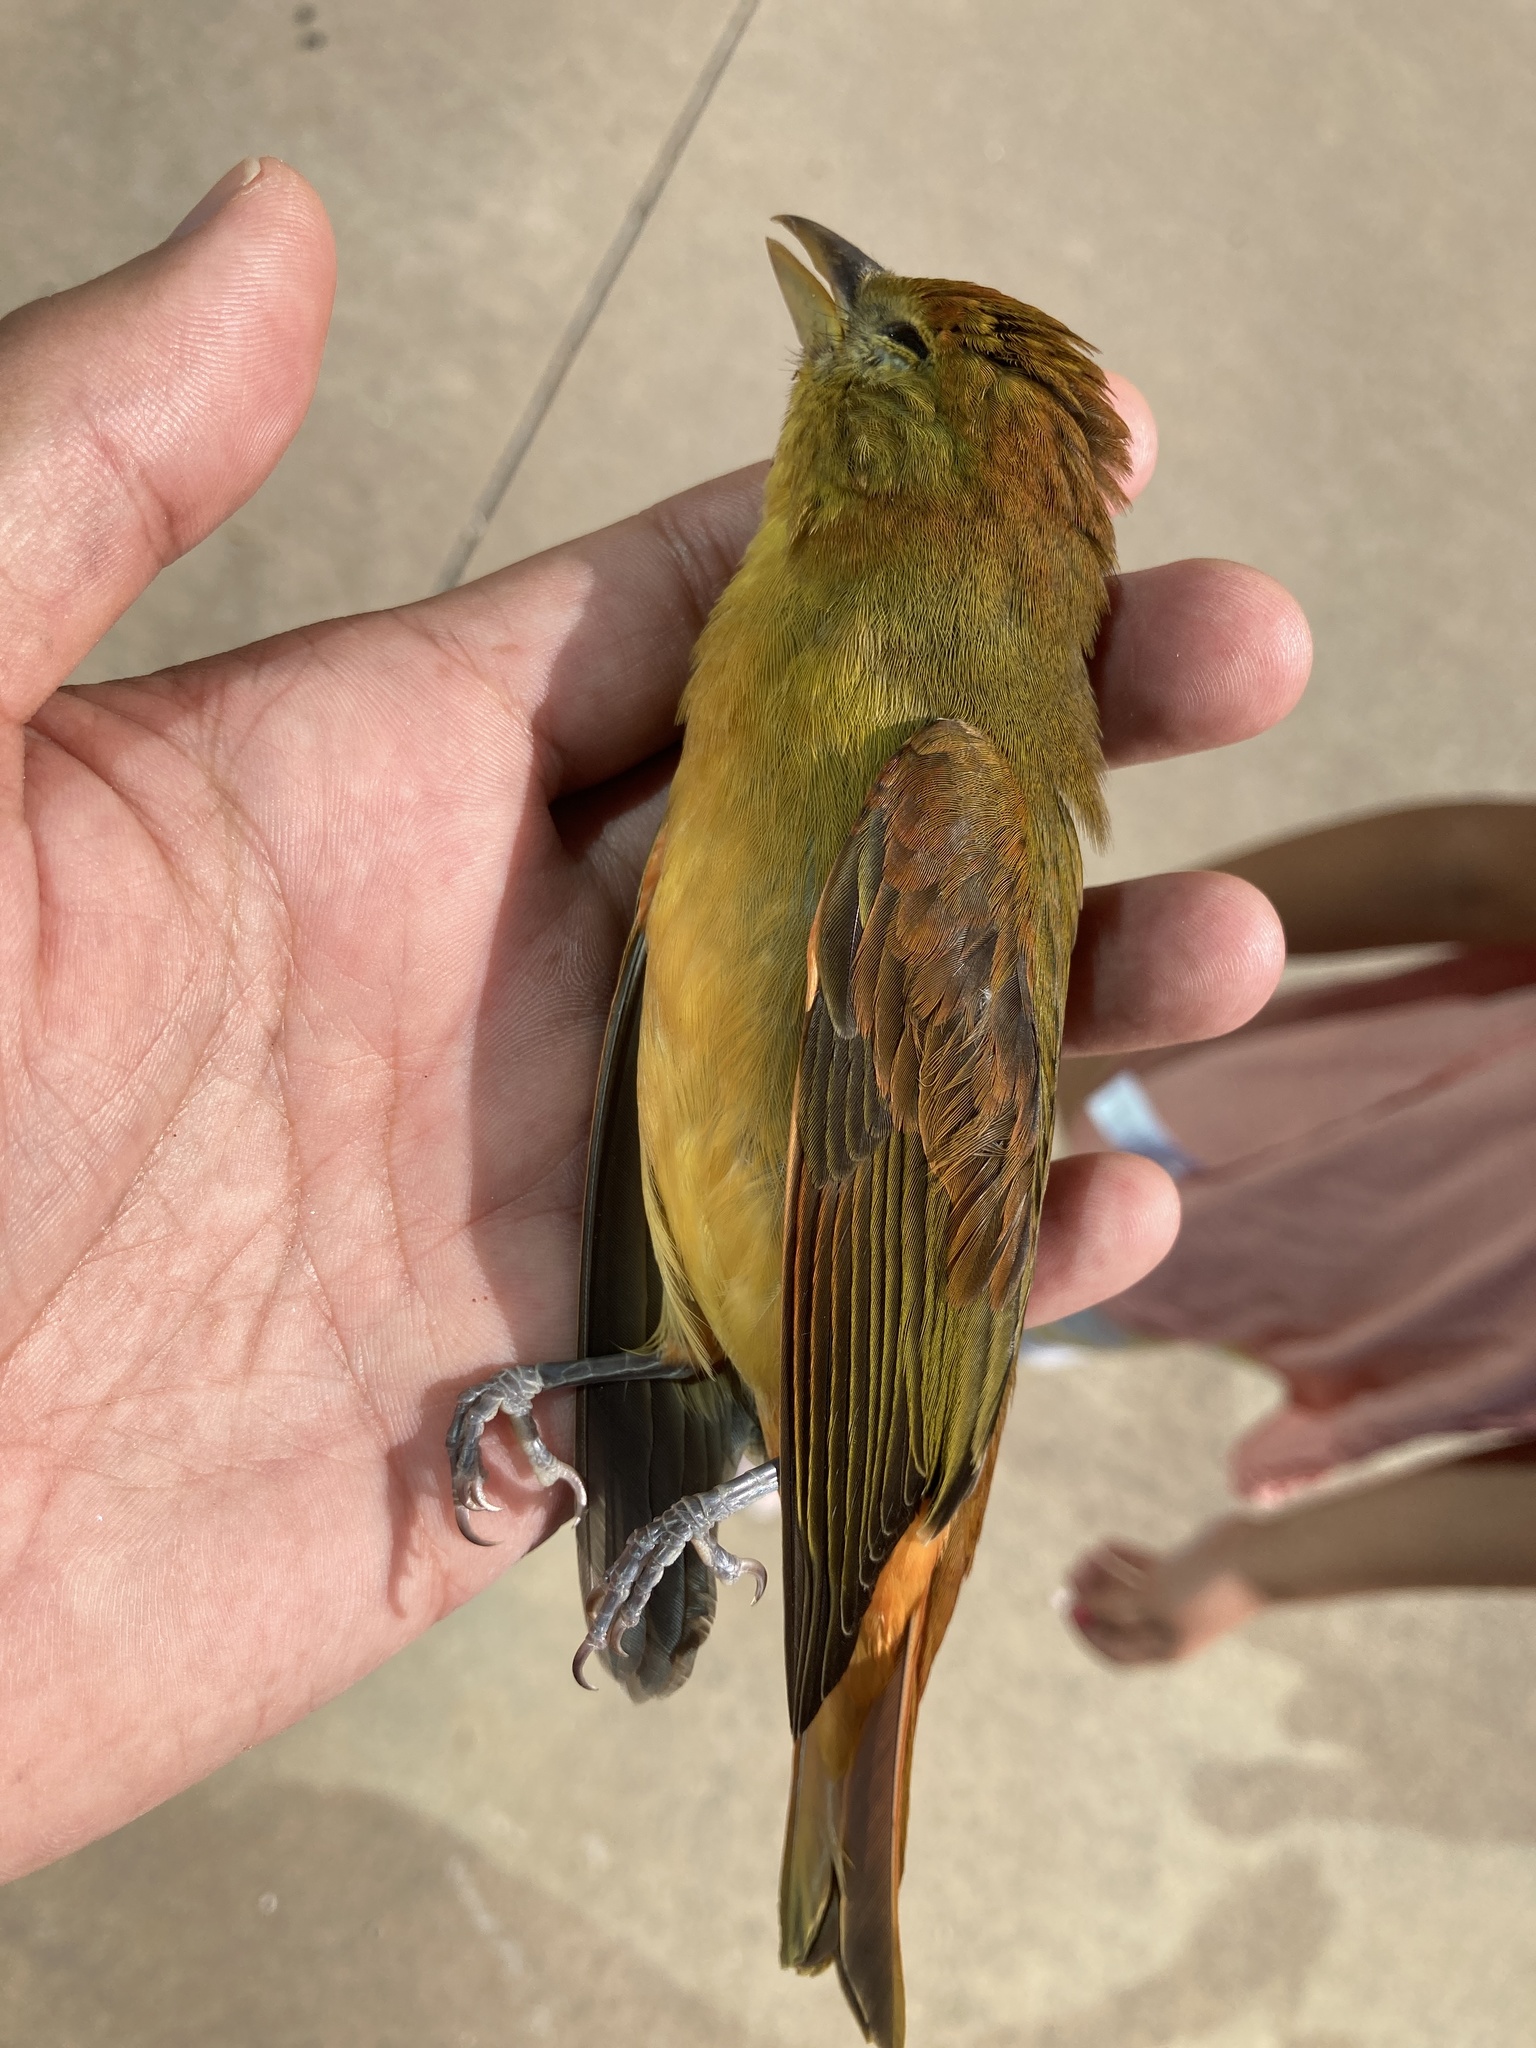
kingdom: Animalia
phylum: Chordata
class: Aves
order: Passeriformes
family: Cardinalidae
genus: Piranga
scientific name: Piranga rubra
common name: Summer tanager
